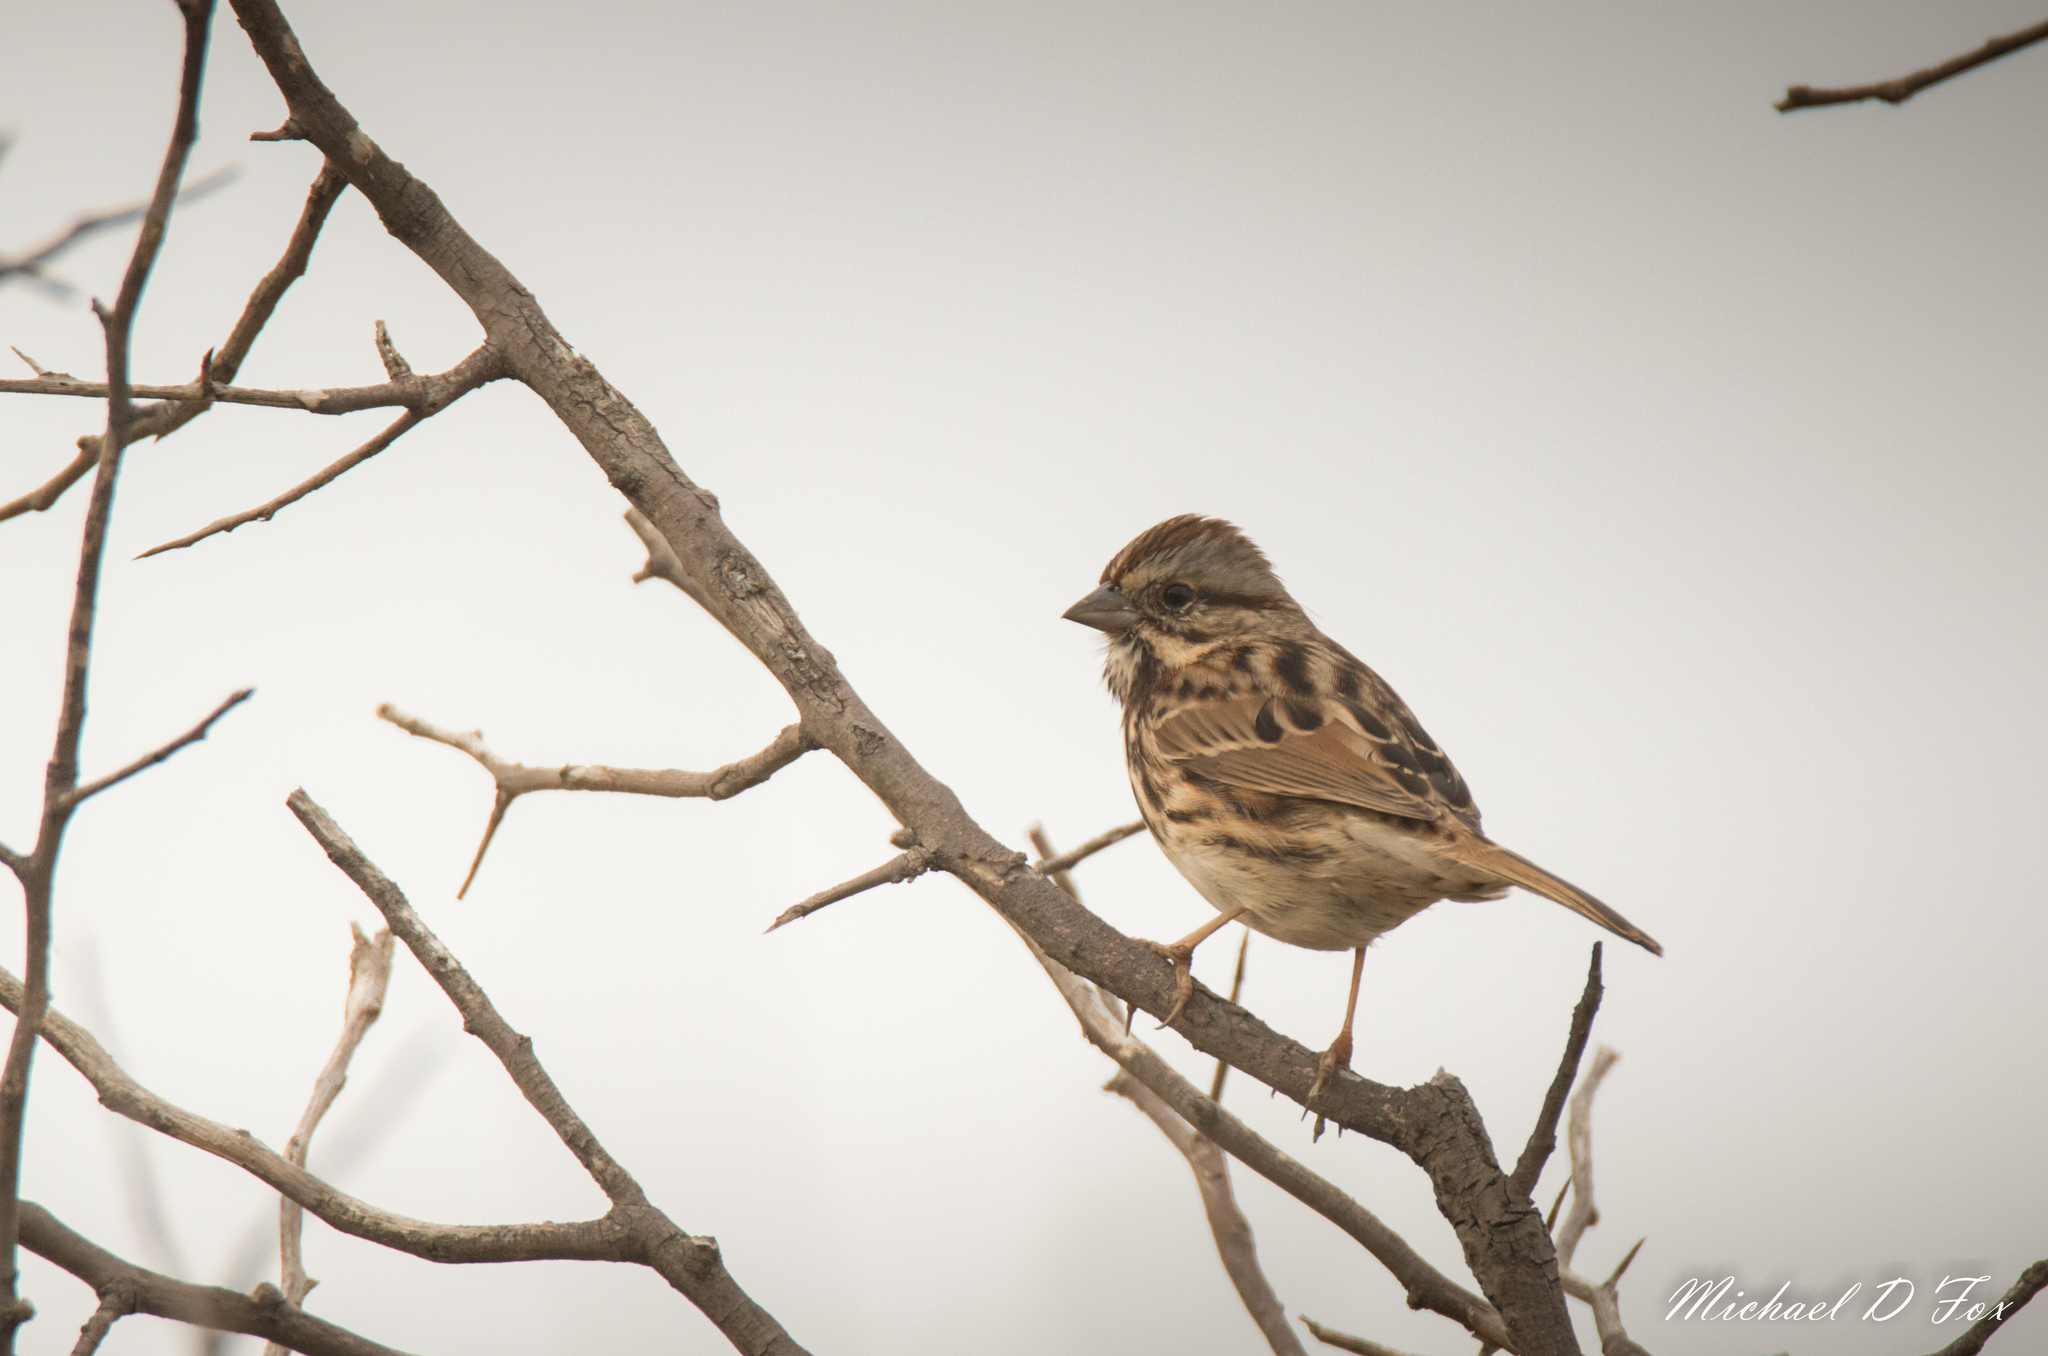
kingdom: Animalia
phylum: Chordata
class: Aves
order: Passeriformes
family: Passerellidae
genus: Melospiza
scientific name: Melospiza melodia
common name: Song sparrow
